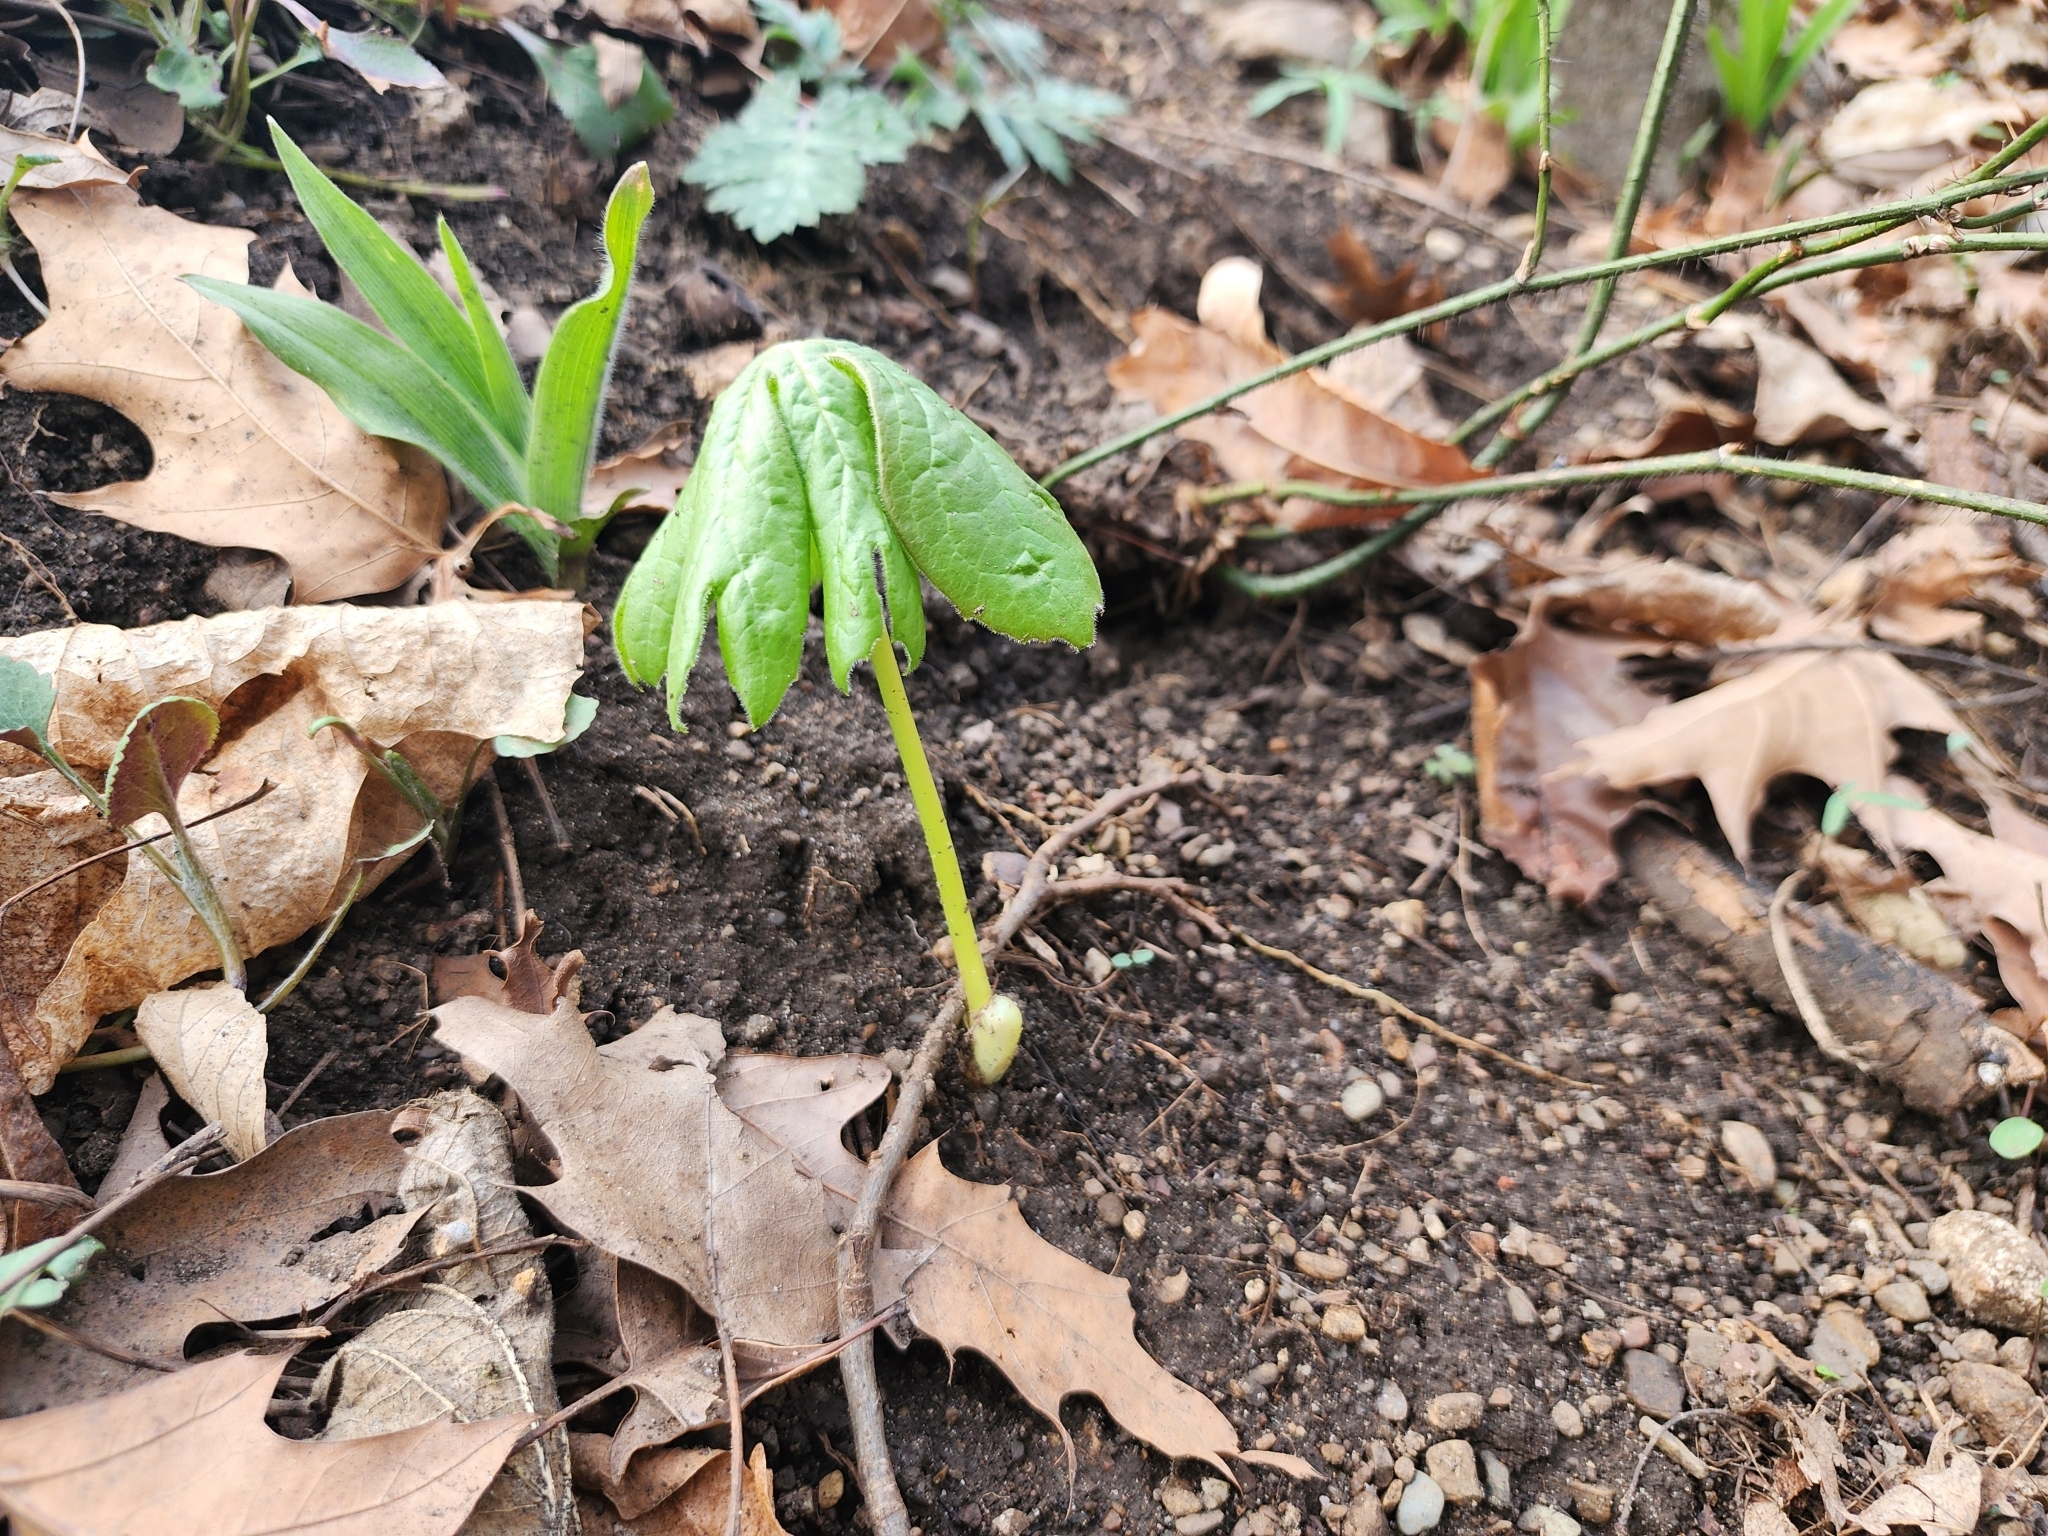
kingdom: Plantae
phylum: Tracheophyta
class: Magnoliopsida
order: Ranunculales
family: Berberidaceae
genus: Podophyllum
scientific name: Podophyllum peltatum
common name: Wild mandrake
